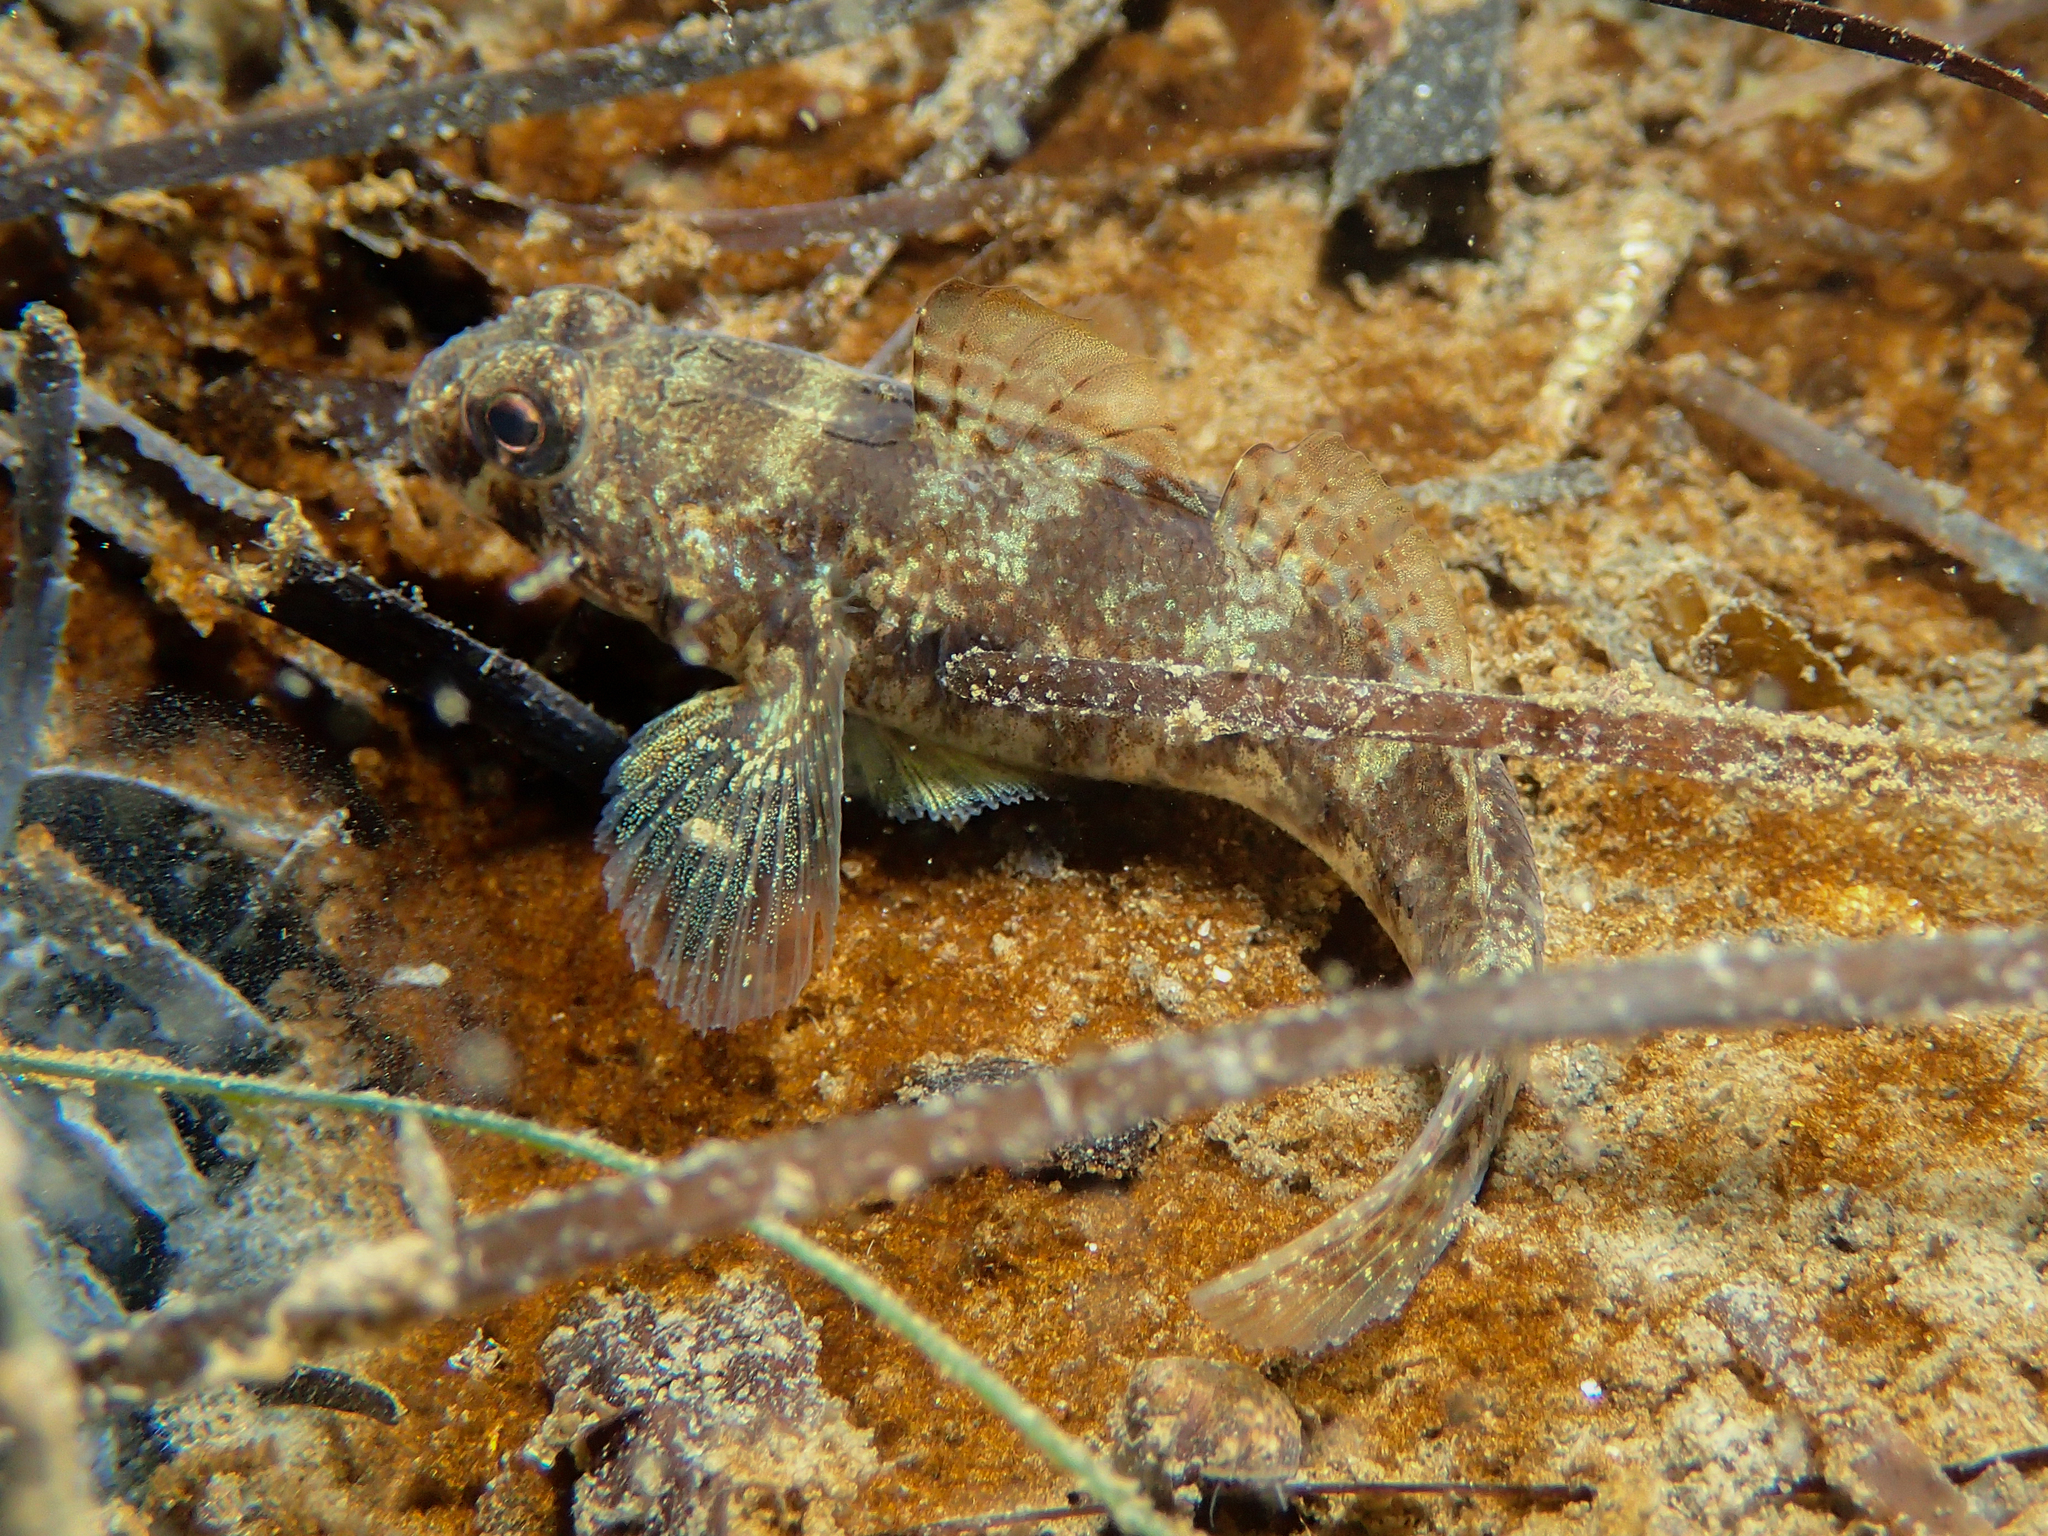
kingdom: Animalia
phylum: Chordata
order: Perciformes
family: Gobiidae
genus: Gobius
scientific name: Gobius niger
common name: Black goby
